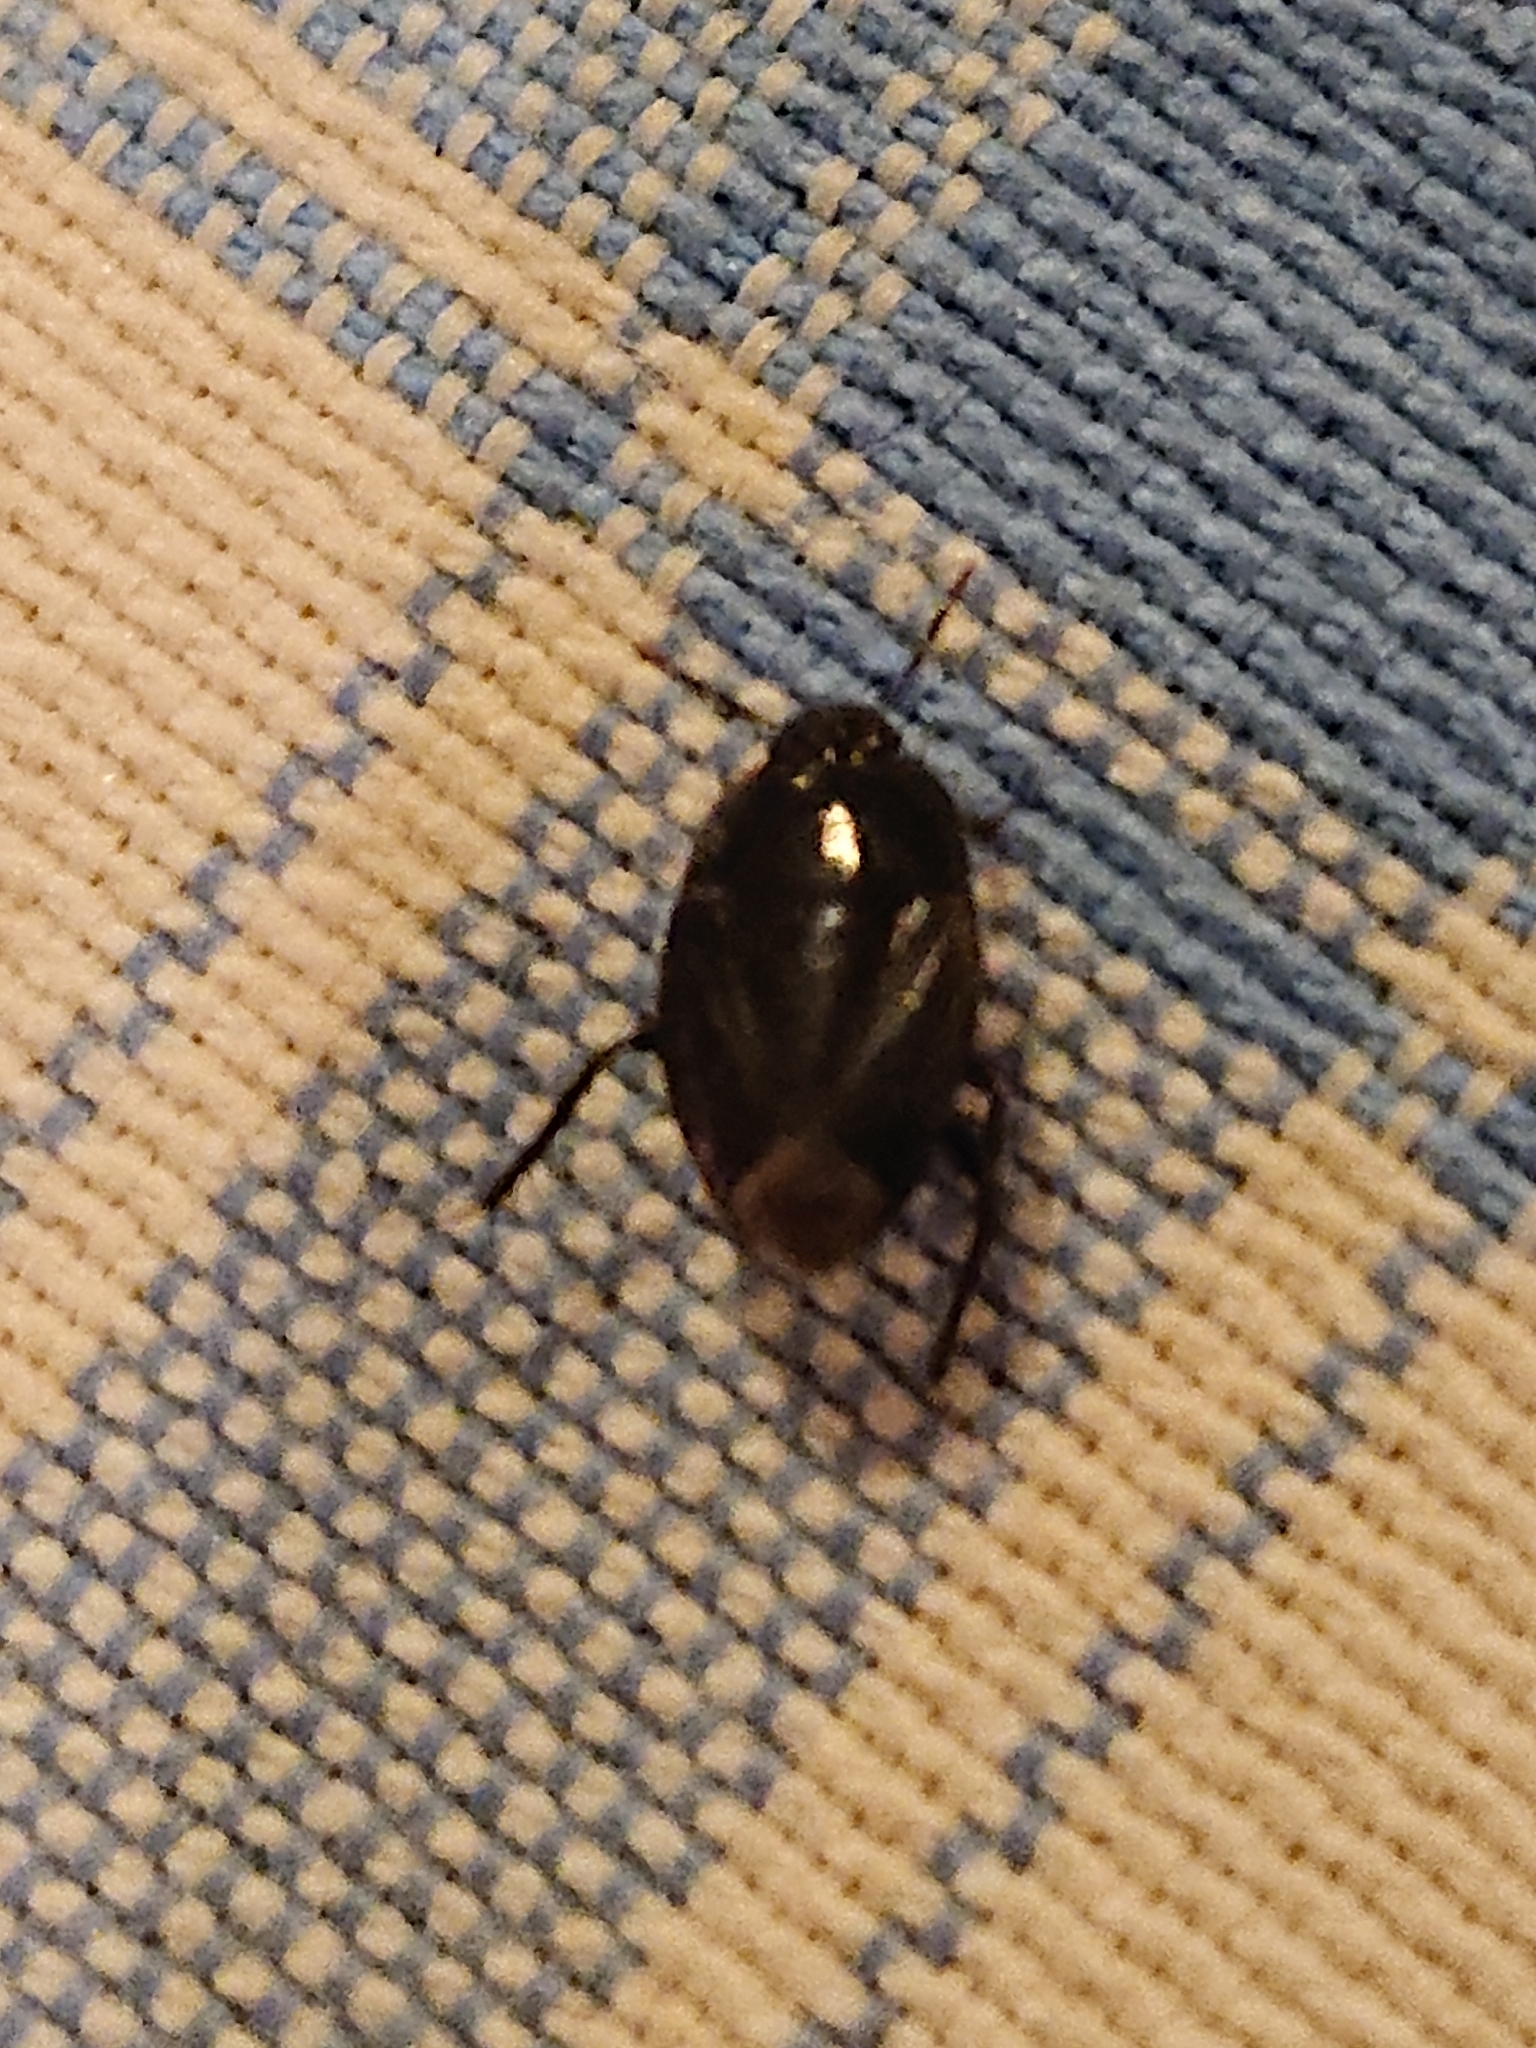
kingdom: Animalia
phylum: Arthropoda
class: Insecta
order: Hemiptera
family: Cydnidae
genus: Macroscytus
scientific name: Macroscytus brunneus
